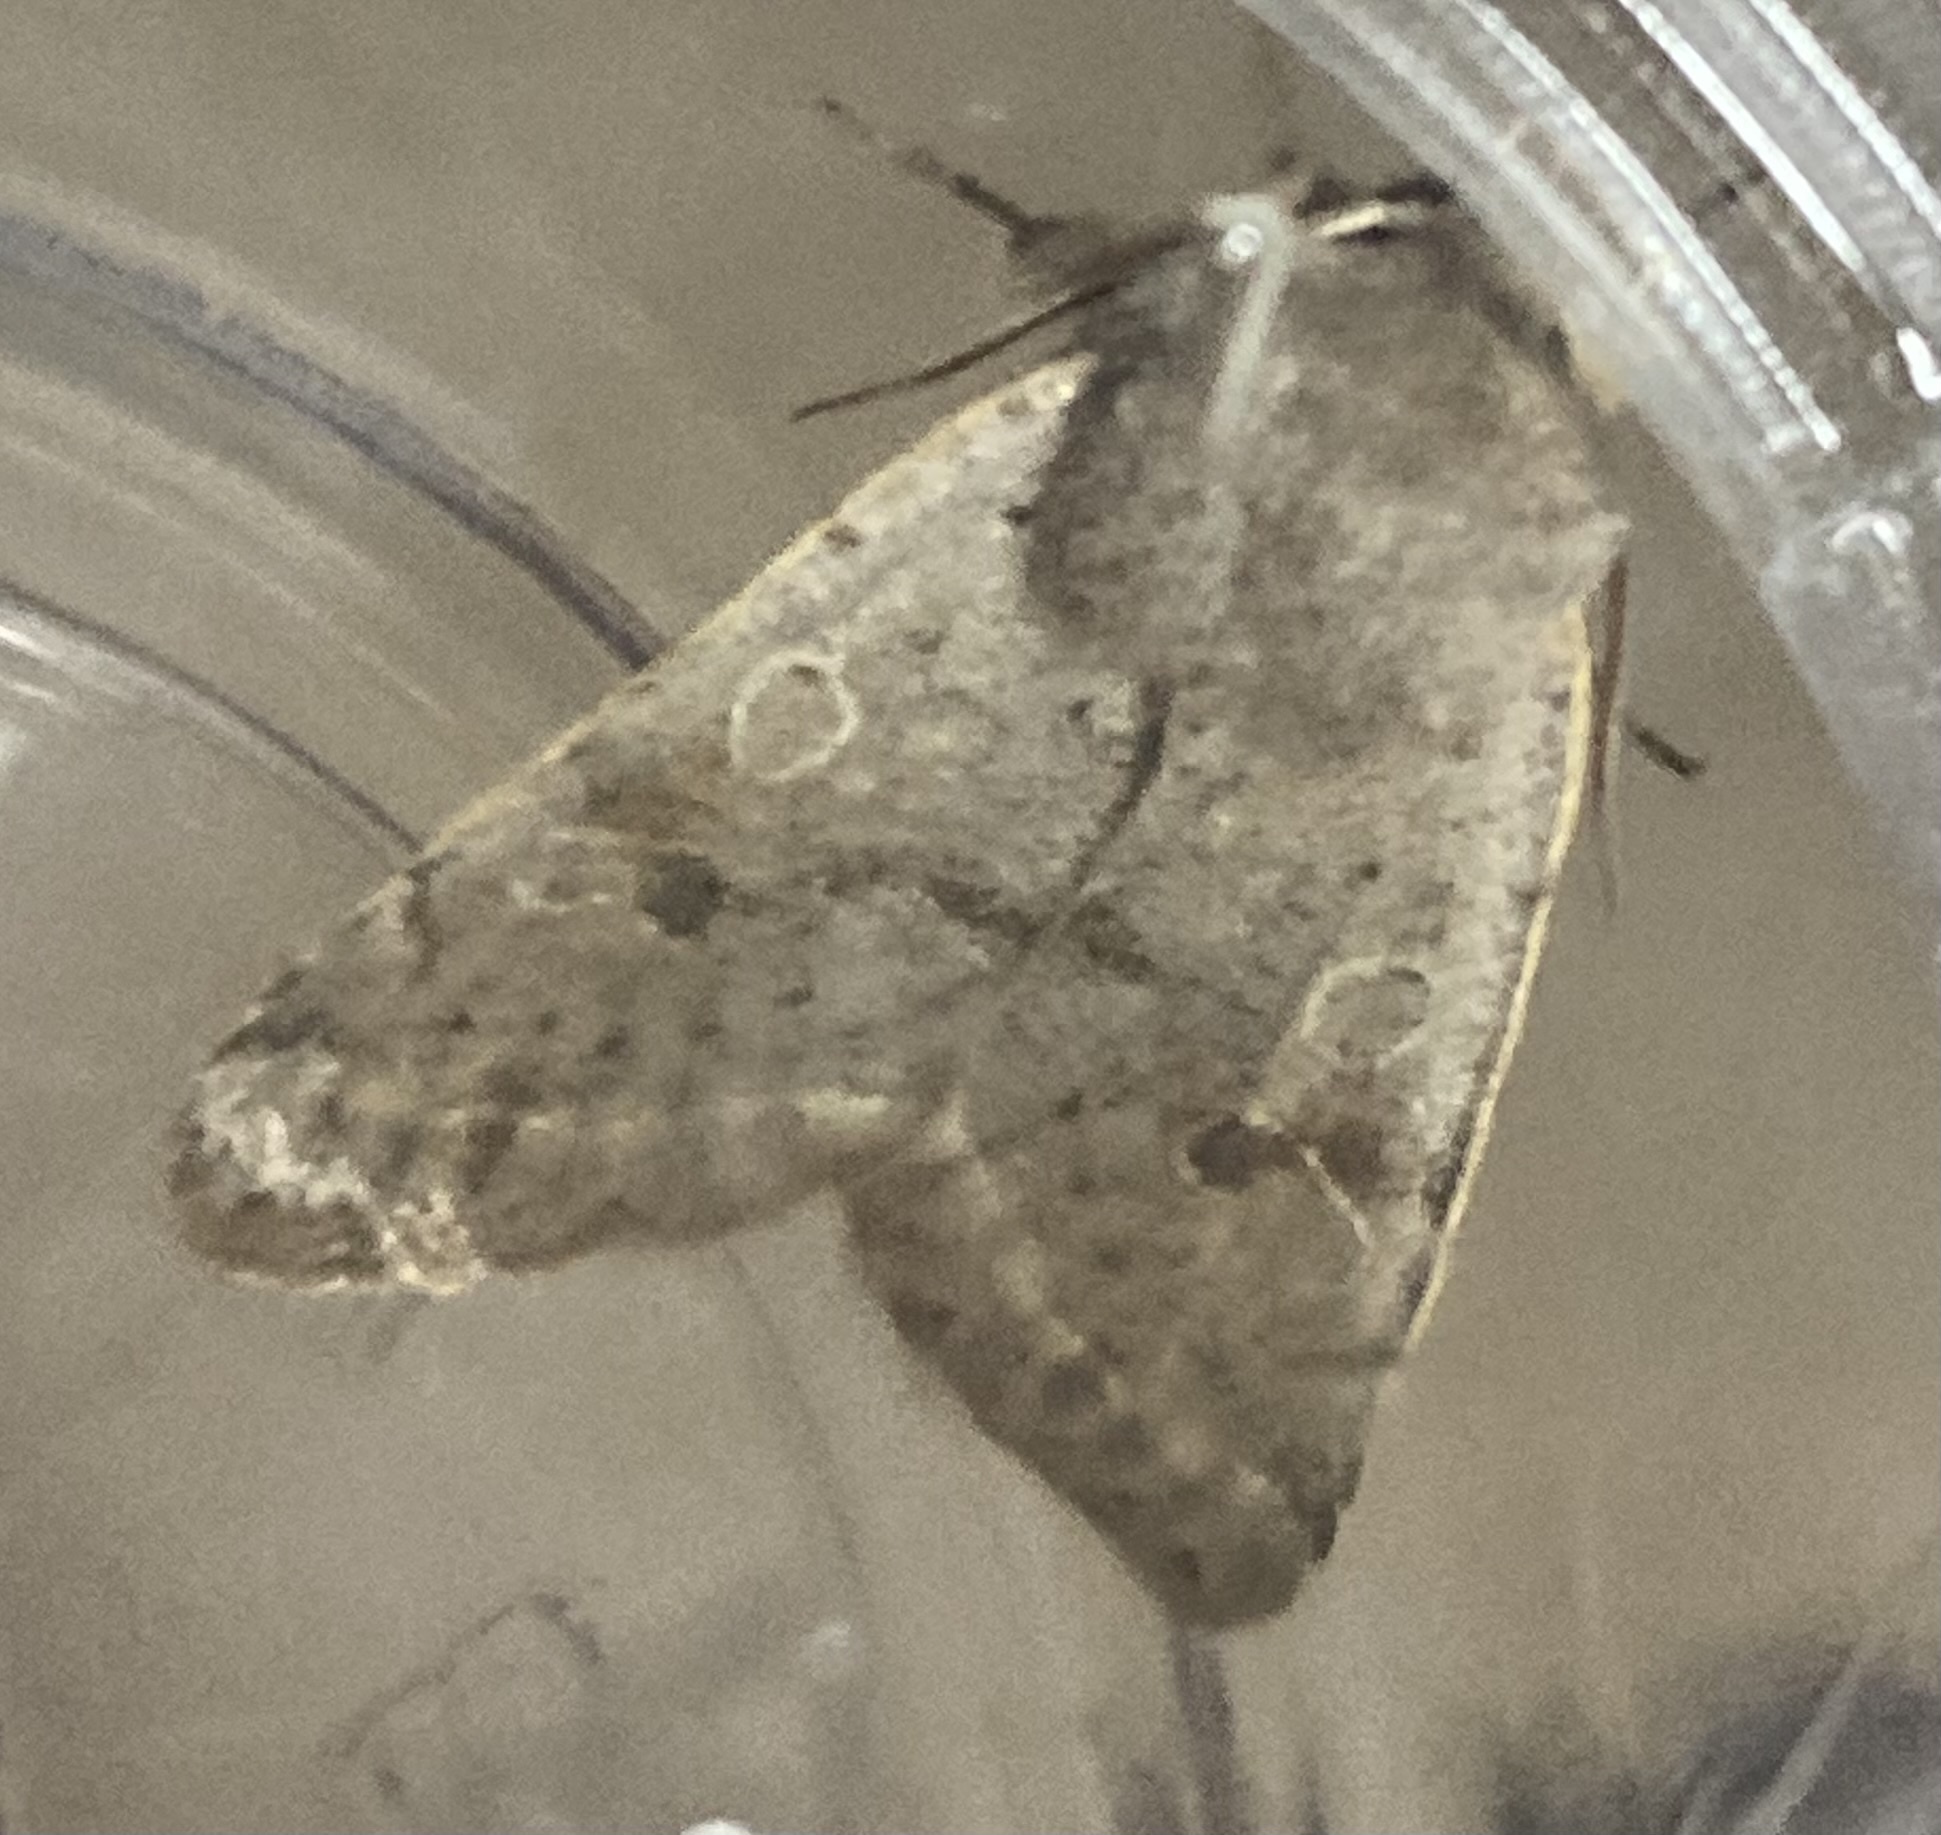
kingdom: Animalia
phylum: Arthropoda
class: Insecta
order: Lepidoptera
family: Noctuidae
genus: Orthosia
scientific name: Orthosia hibisci
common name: Green fruitworm
